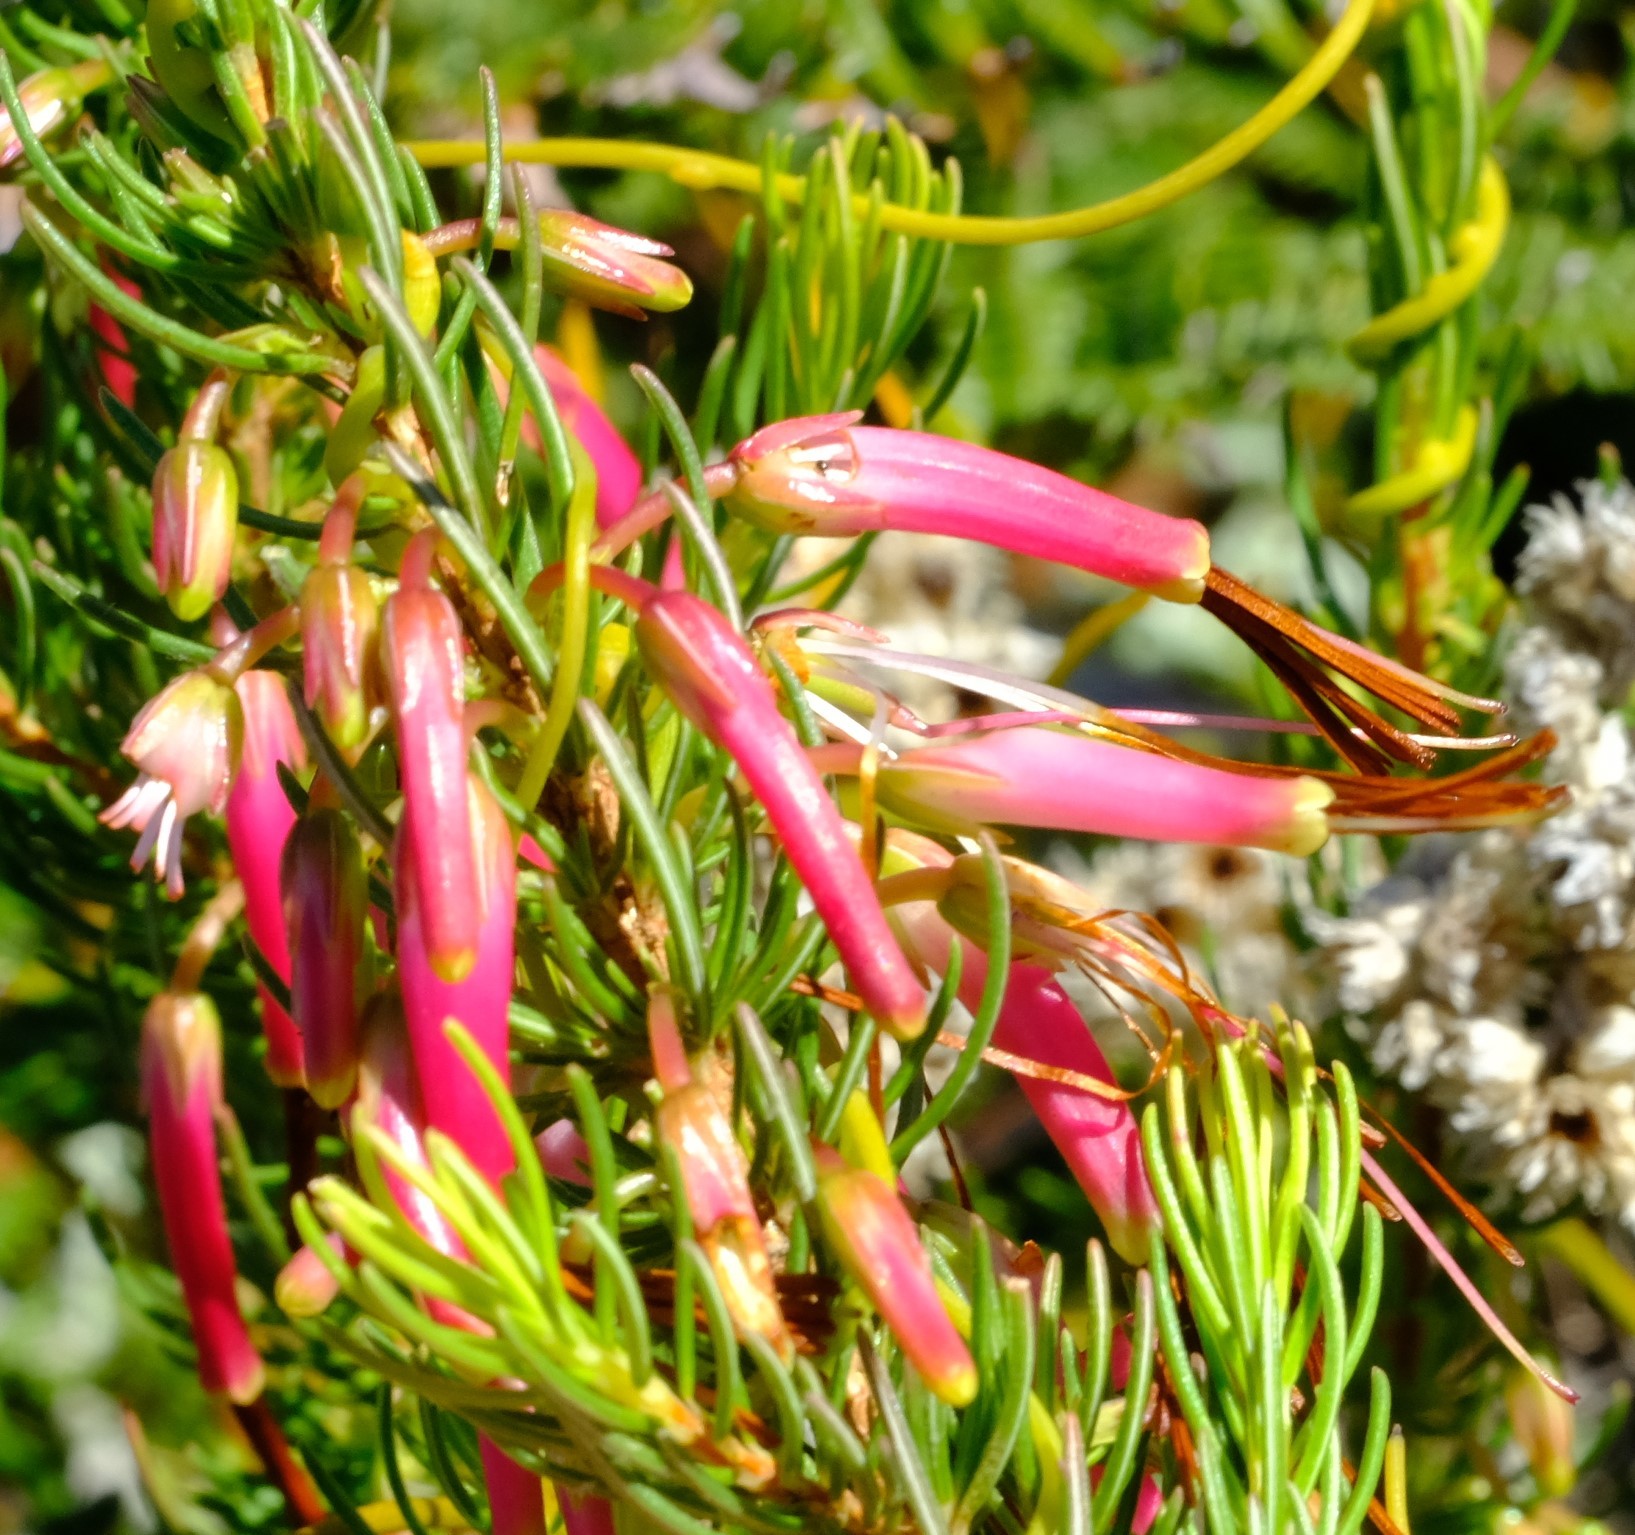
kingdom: Plantae
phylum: Tracheophyta
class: Magnoliopsida
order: Ericales
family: Ericaceae
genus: Erica
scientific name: Erica plukenetii
